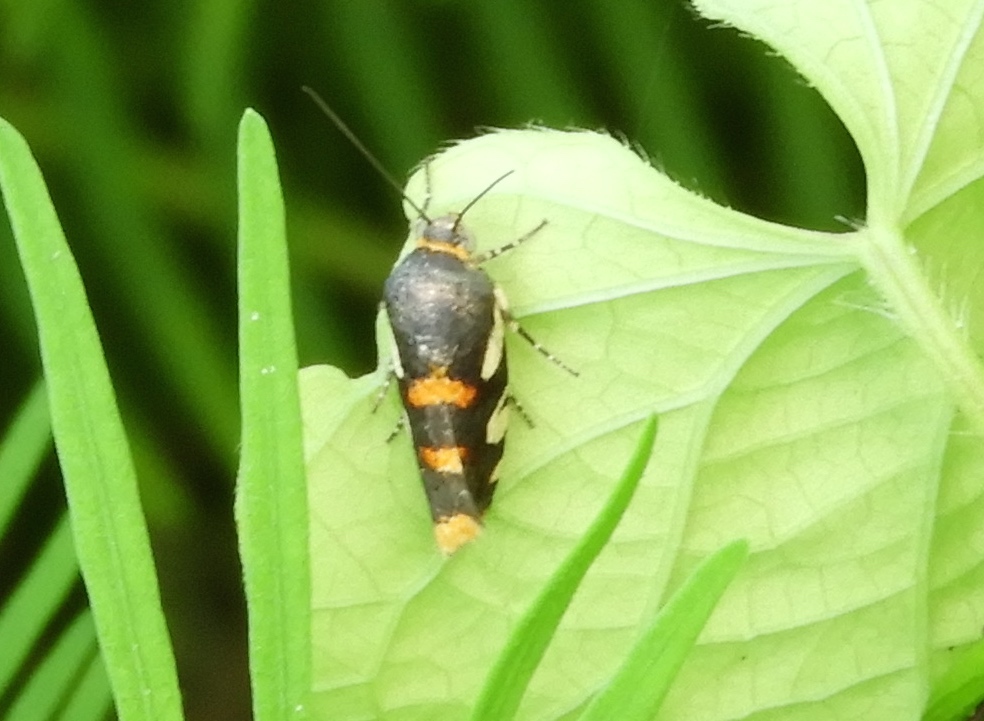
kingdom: Animalia
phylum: Arthropoda
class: Insecta
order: Lepidoptera
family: Noctuidae
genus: Spragueia
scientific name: Spragueia
